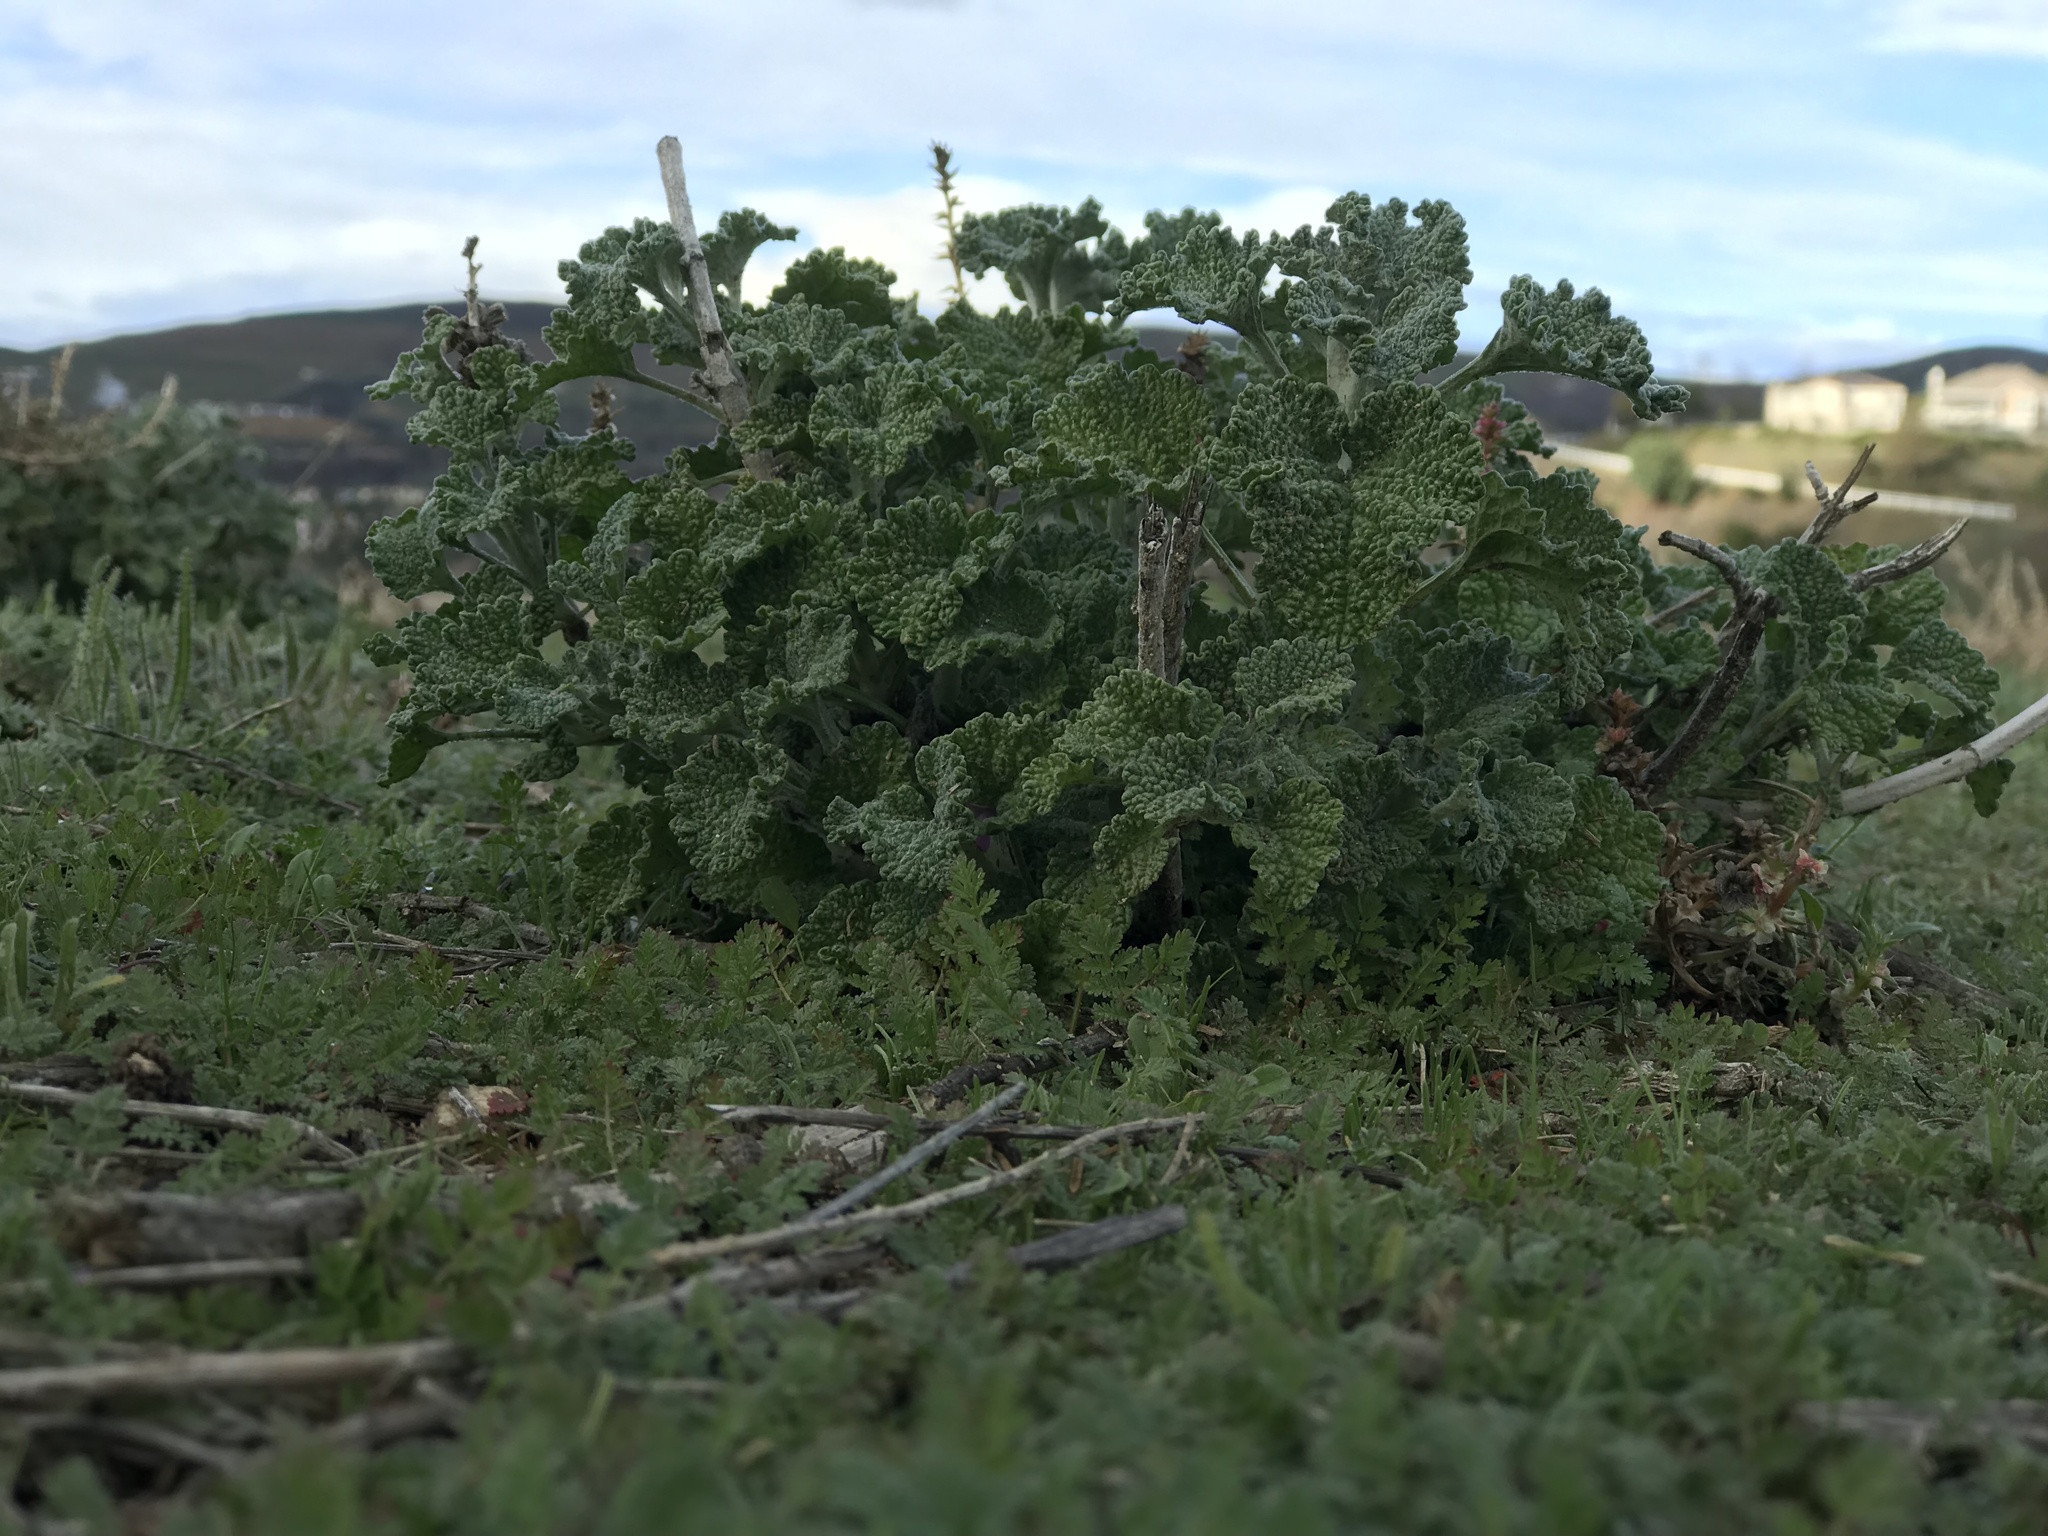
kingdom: Plantae
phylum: Tracheophyta
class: Magnoliopsida
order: Lamiales
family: Lamiaceae
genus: Marrubium
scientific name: Marrubium vulgare
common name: Horehound
